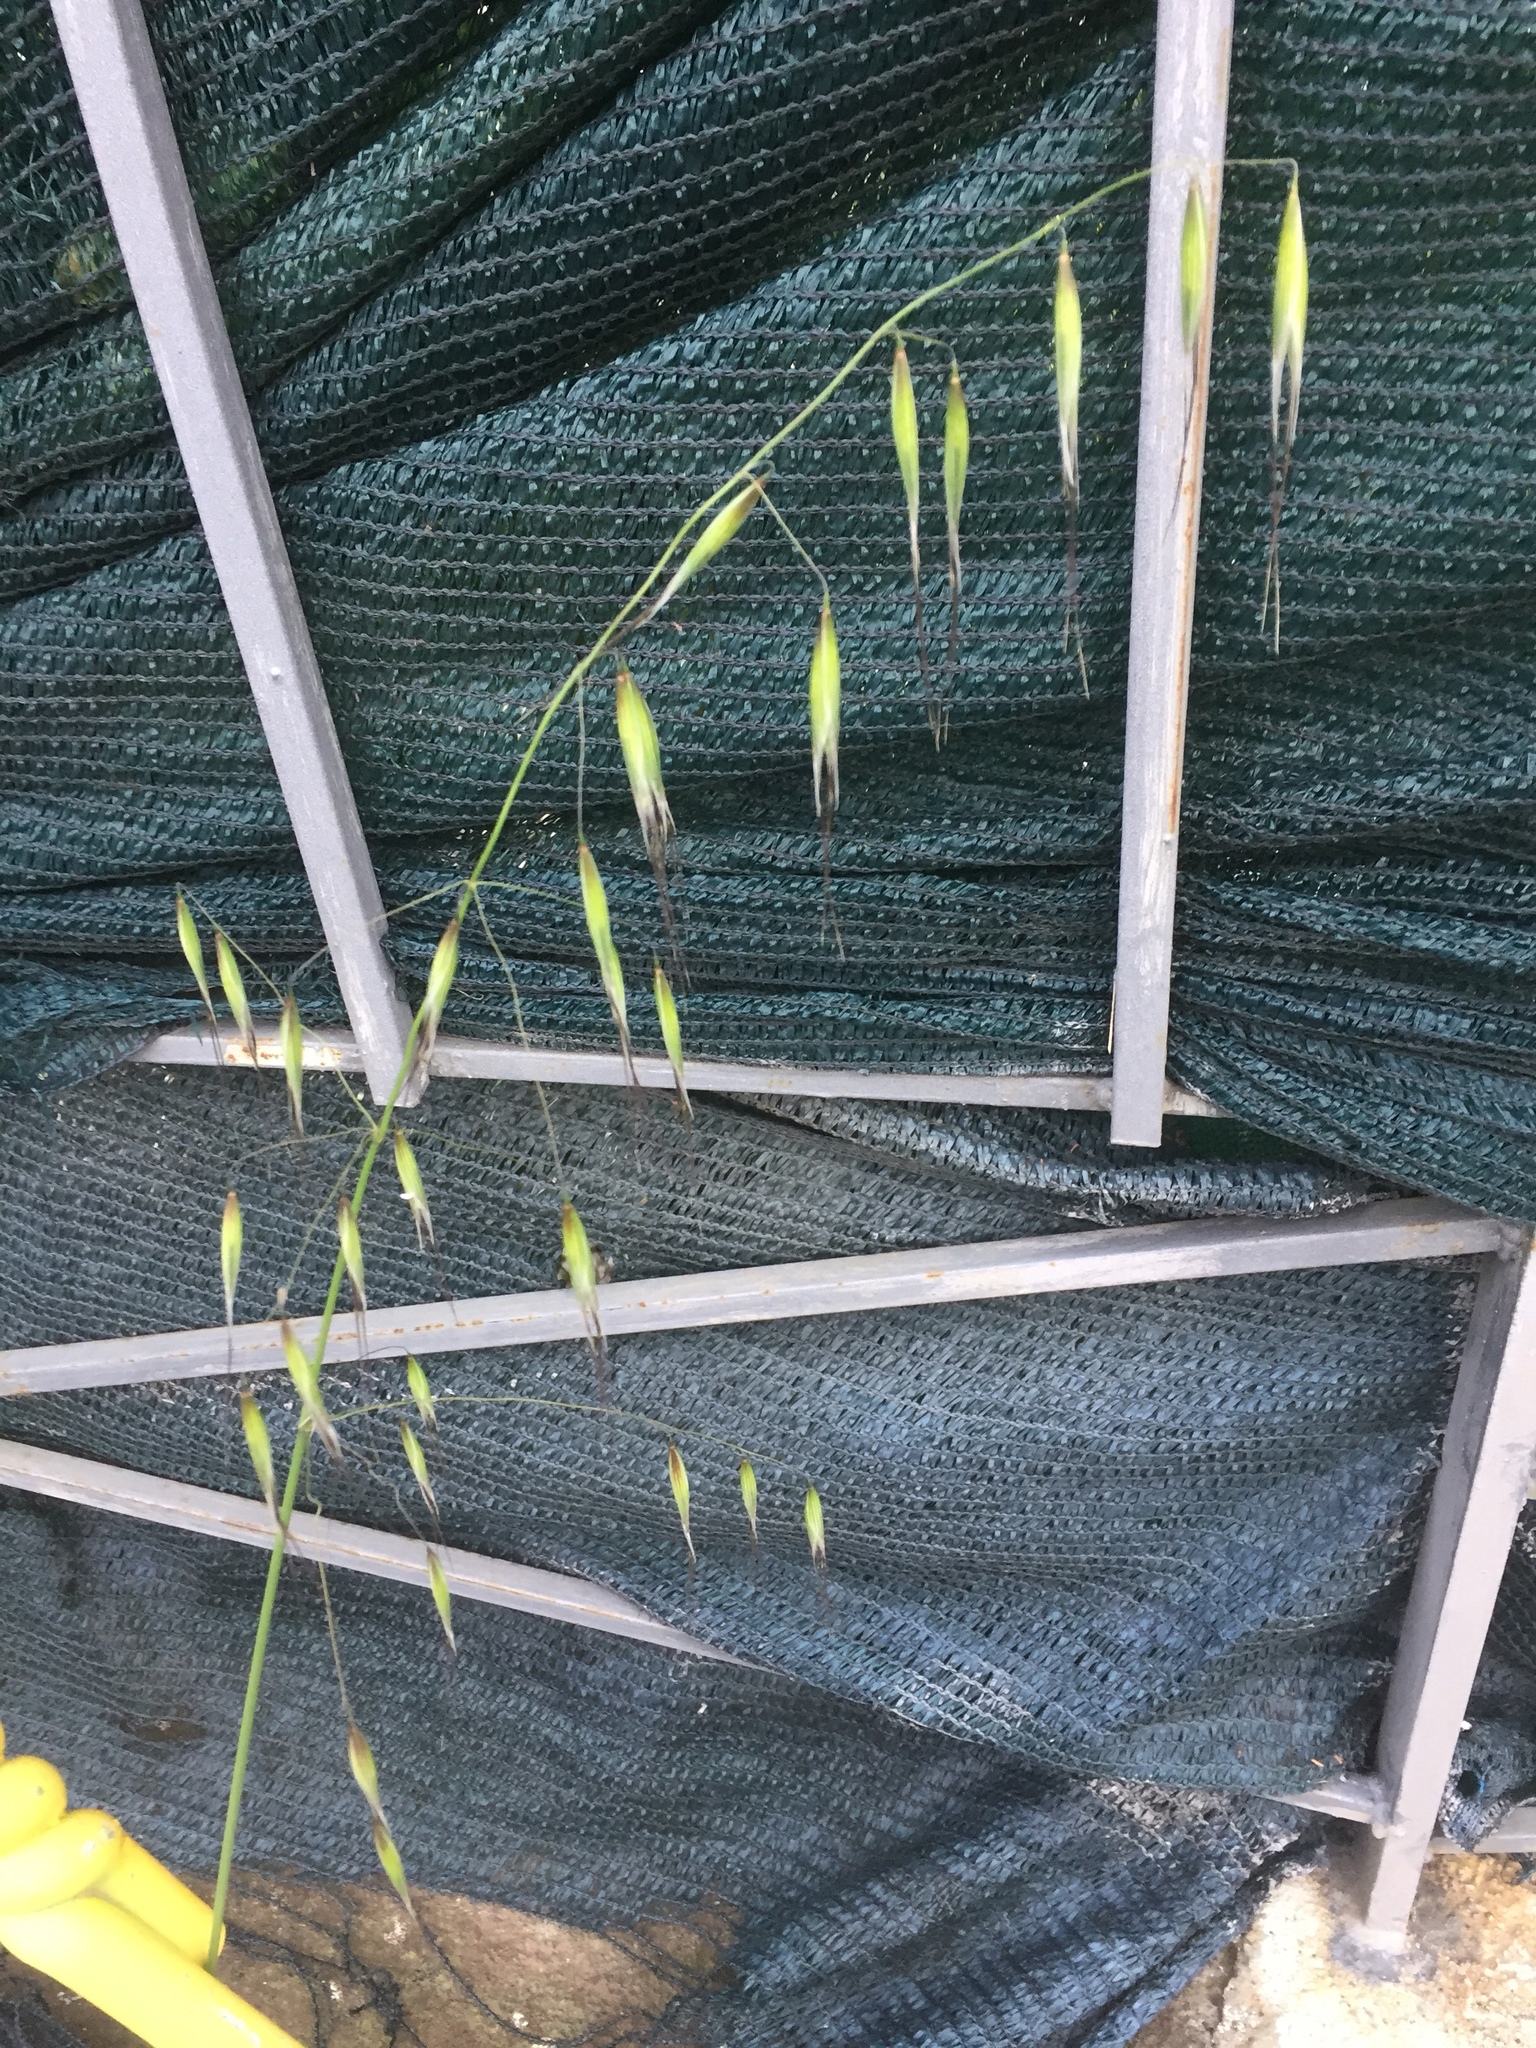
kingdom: Plantae
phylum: Tracheophyta
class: Liliopsida
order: Poales
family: Poaceae
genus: Avena
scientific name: Avena barbata
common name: Slender oat
